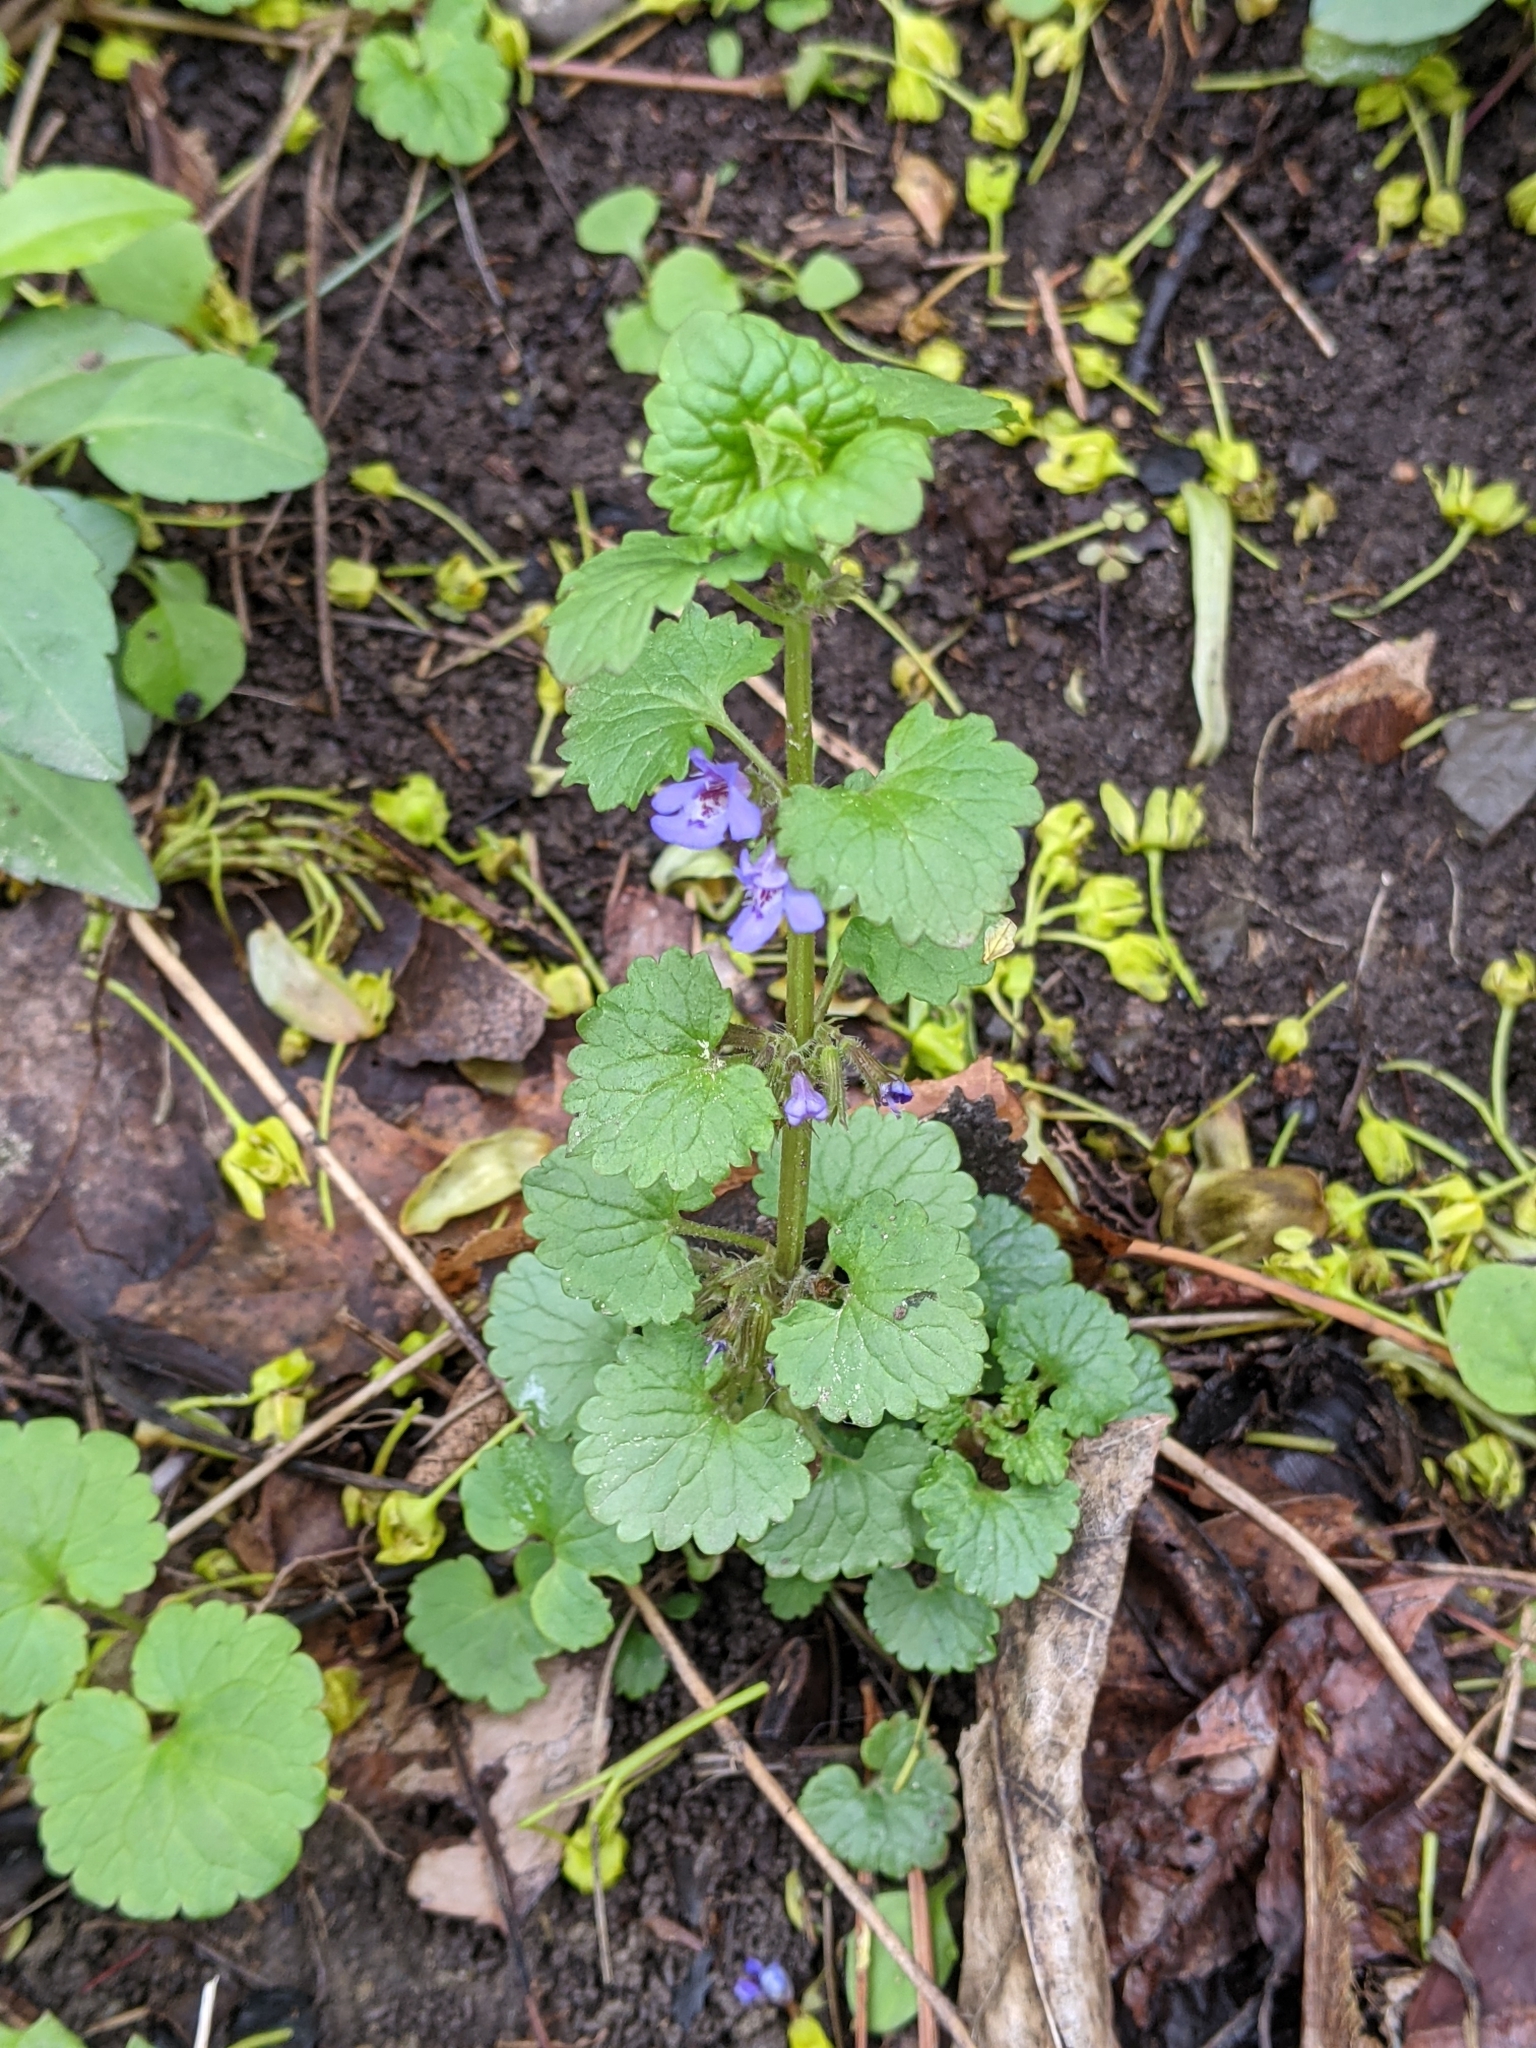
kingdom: Plantae
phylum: Tracheophyta
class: Magnoliopsida
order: Lamiales
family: Lamiaceae
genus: Glechoma
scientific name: Glechoma hederacea
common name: Ground ivy
